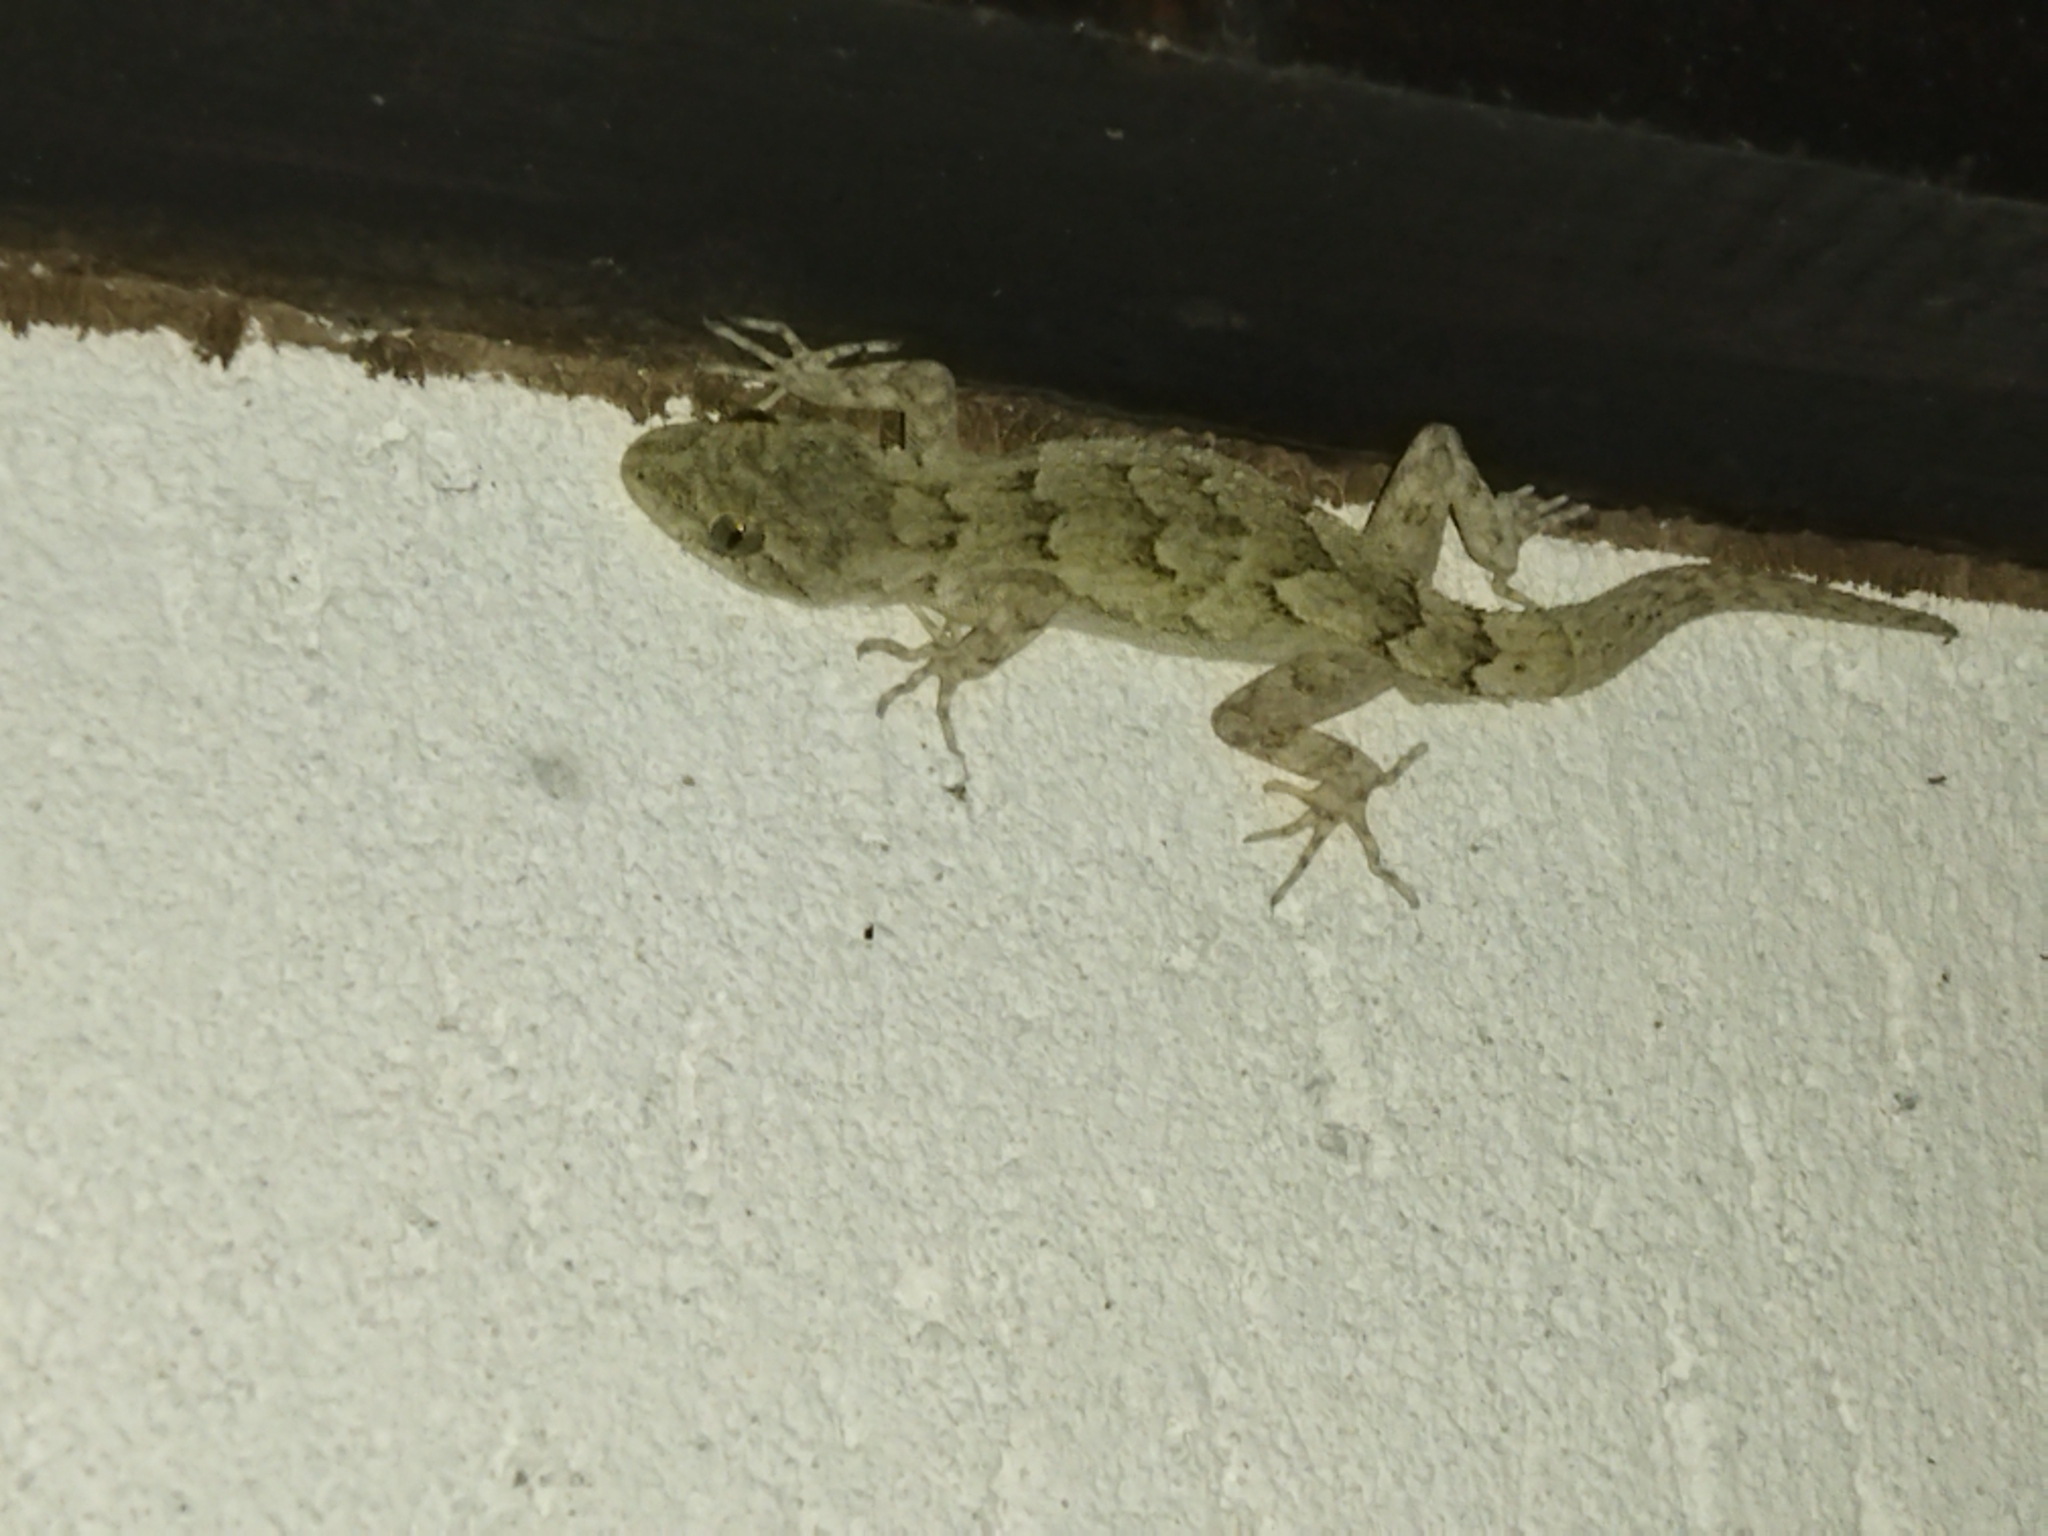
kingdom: Animalia
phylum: Chordata
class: Squamata
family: Gekkonidae
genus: Mediodactylus
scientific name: Mediodactylus kotschyi
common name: Kotschy's gecko
